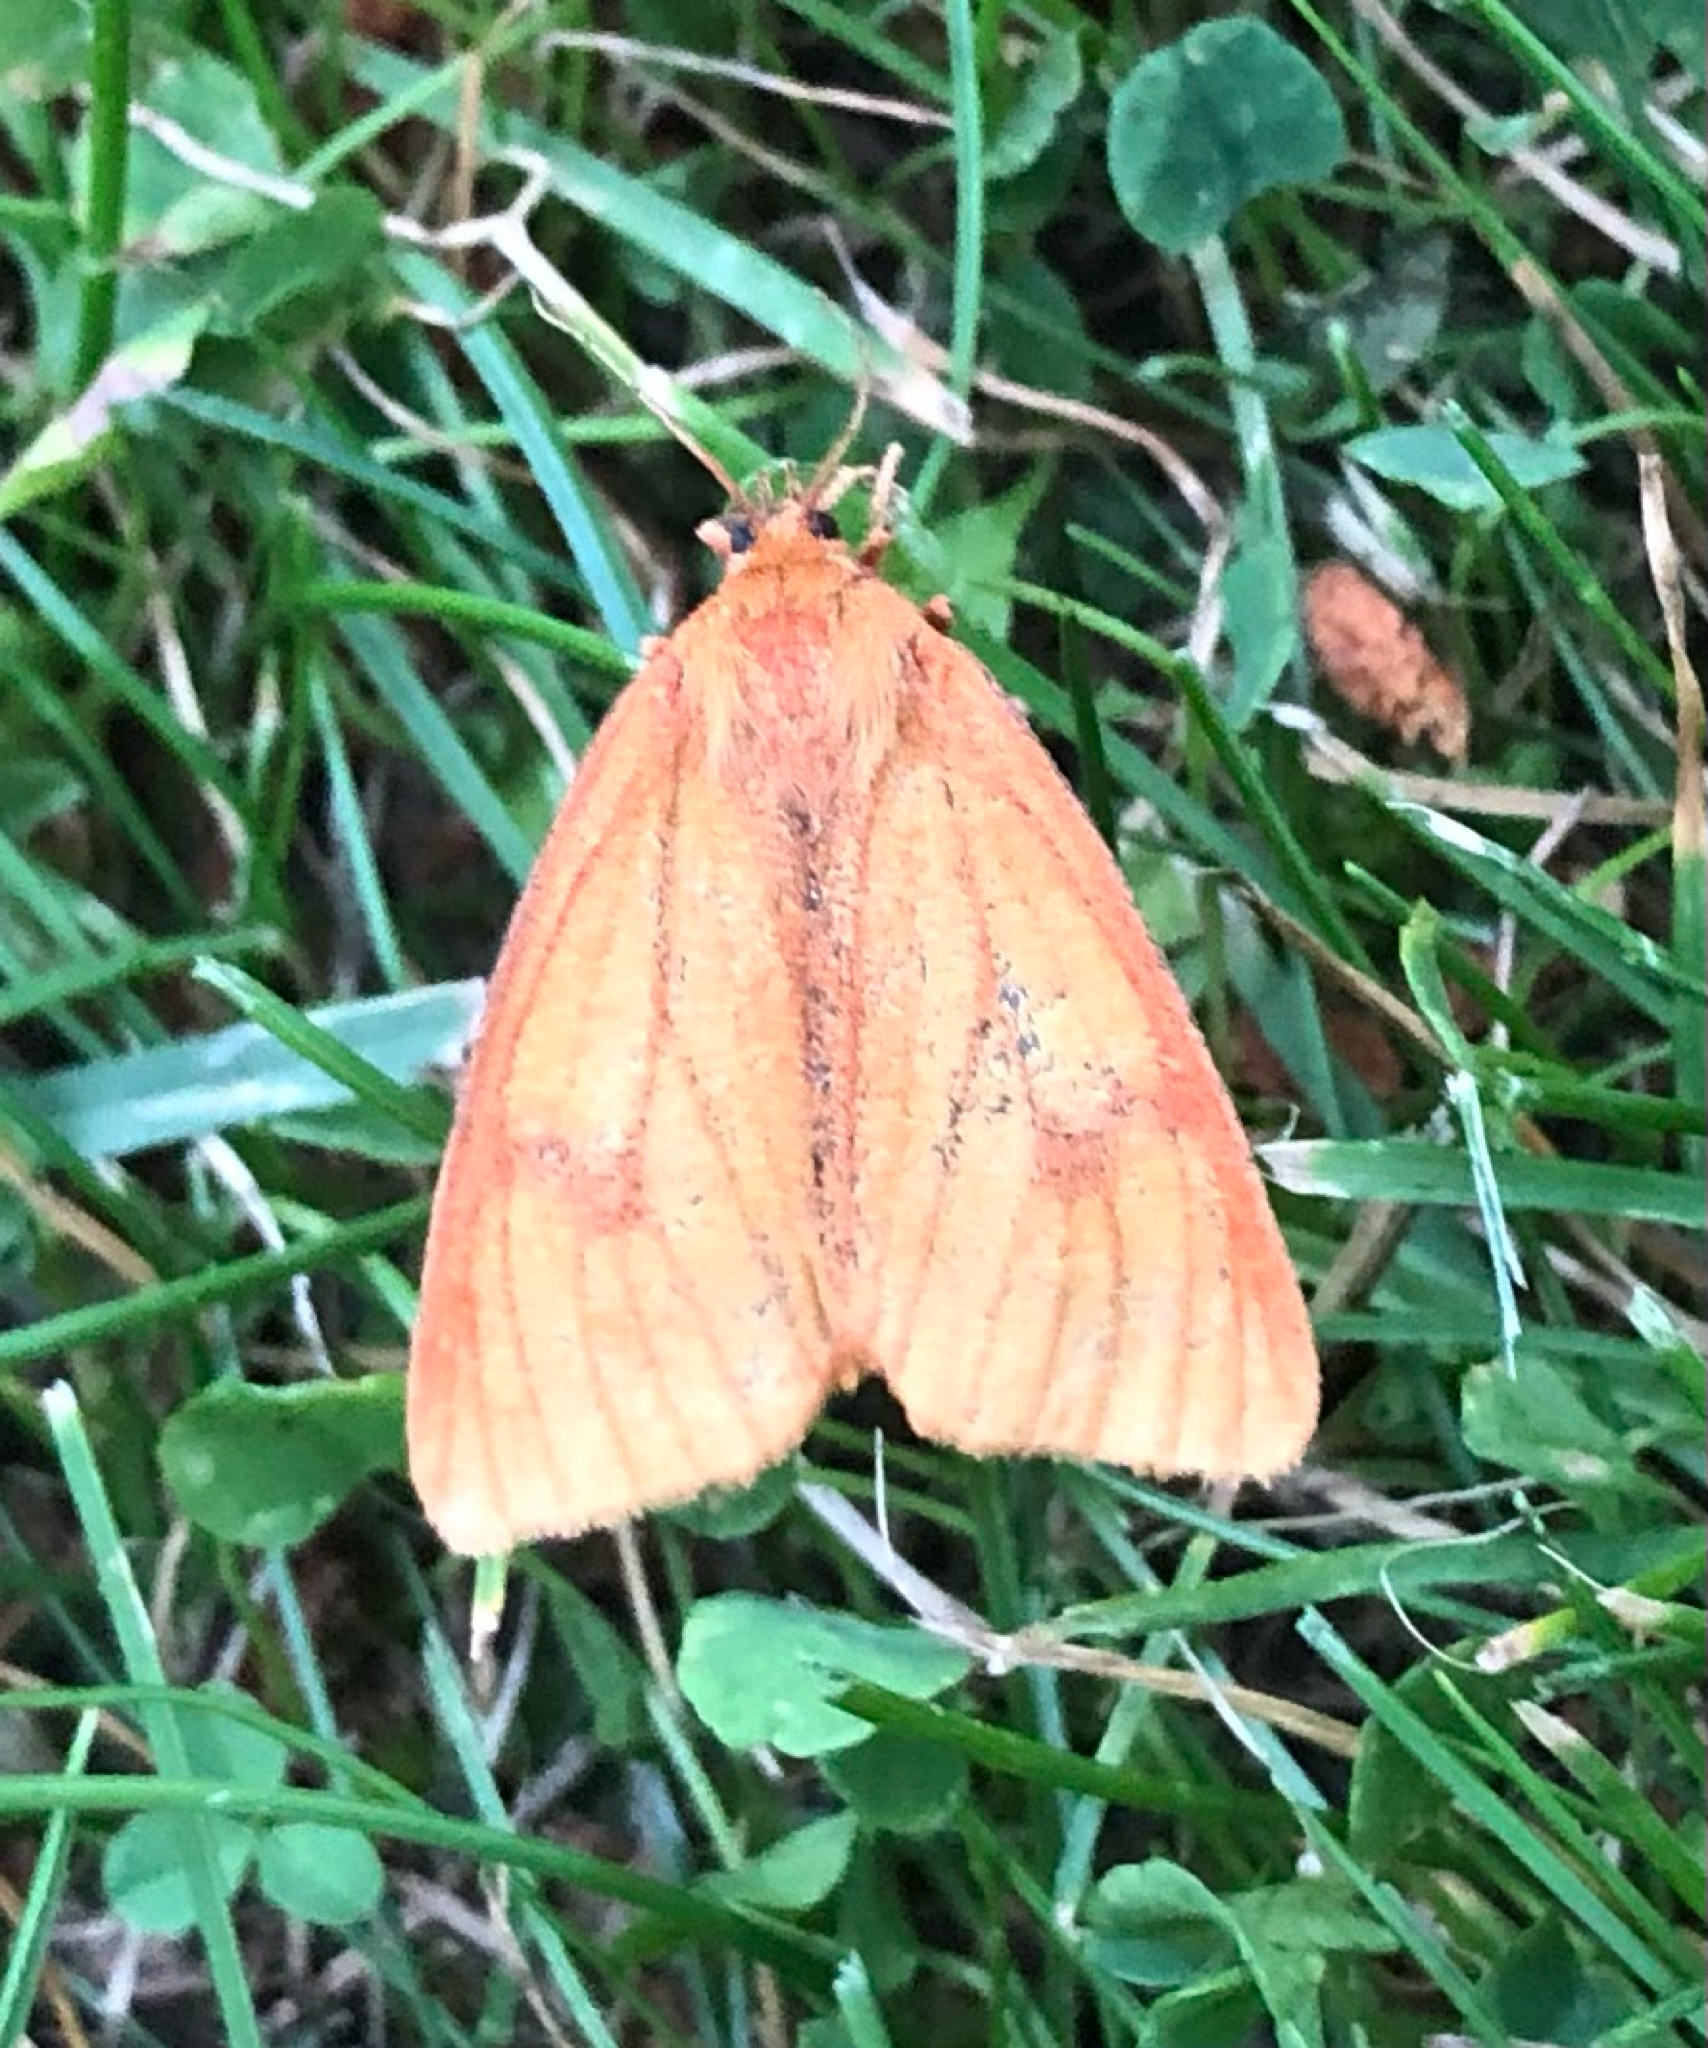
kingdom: Animalia
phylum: Arthropoda
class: Insecta
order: Lepidoptera
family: Erebidae
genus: Diacrisia
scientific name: Diacrisia sannio
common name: Clouded buff
